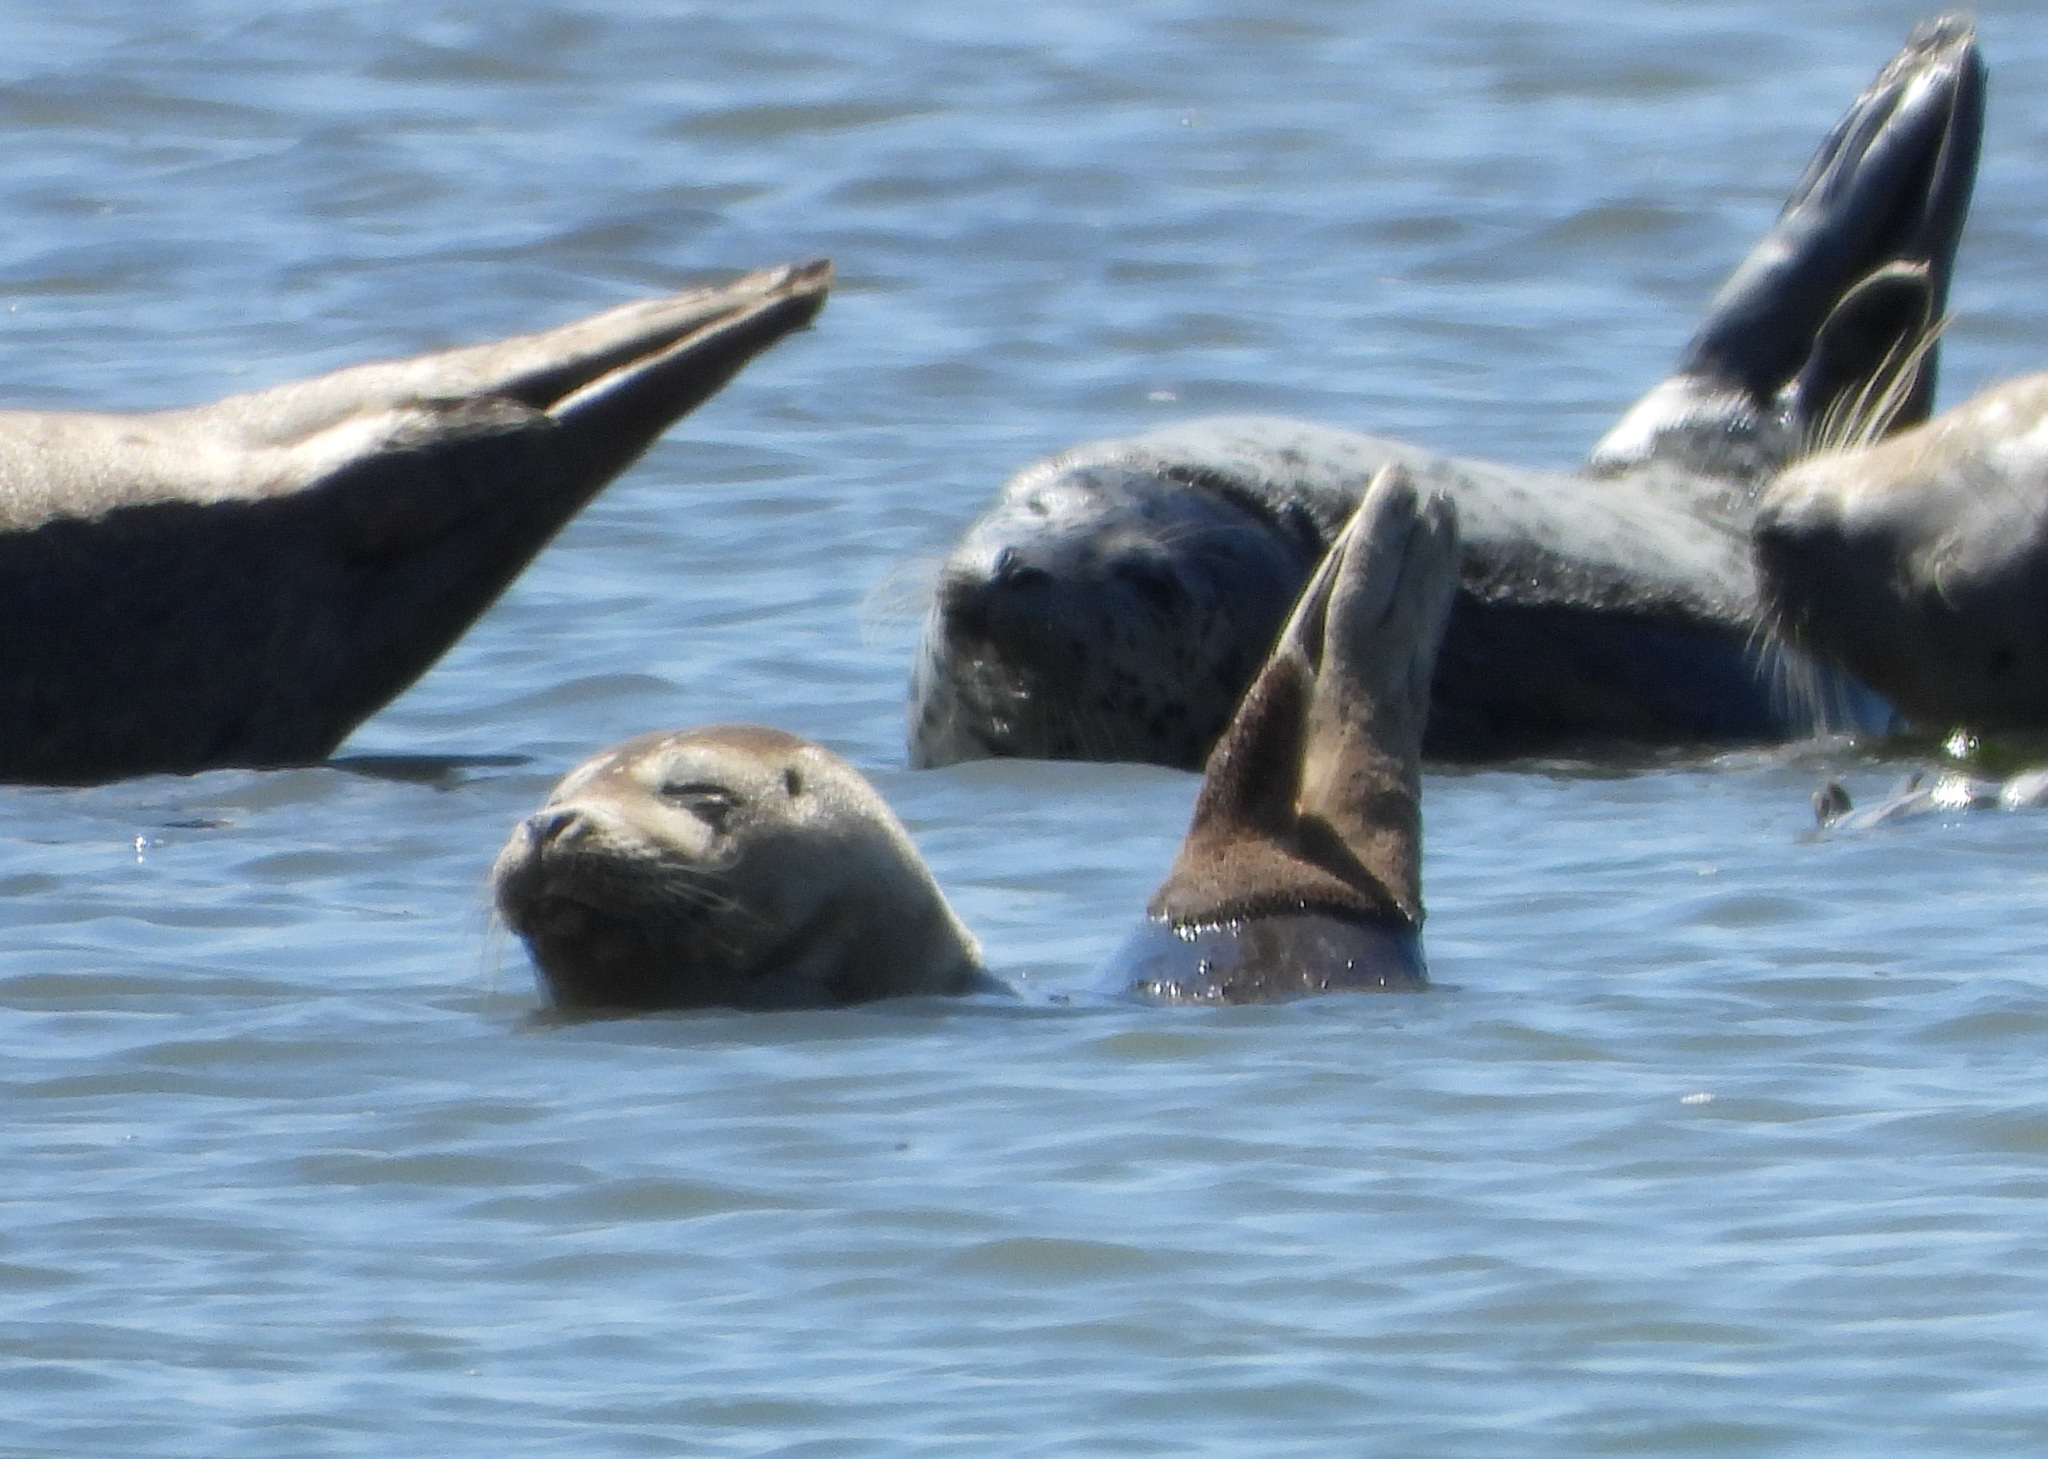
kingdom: Animalia
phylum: Chordata
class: Mammalia
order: Carnivora
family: Phocidae
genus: Phoca
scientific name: Phoca vitulina
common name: Harbor seal
